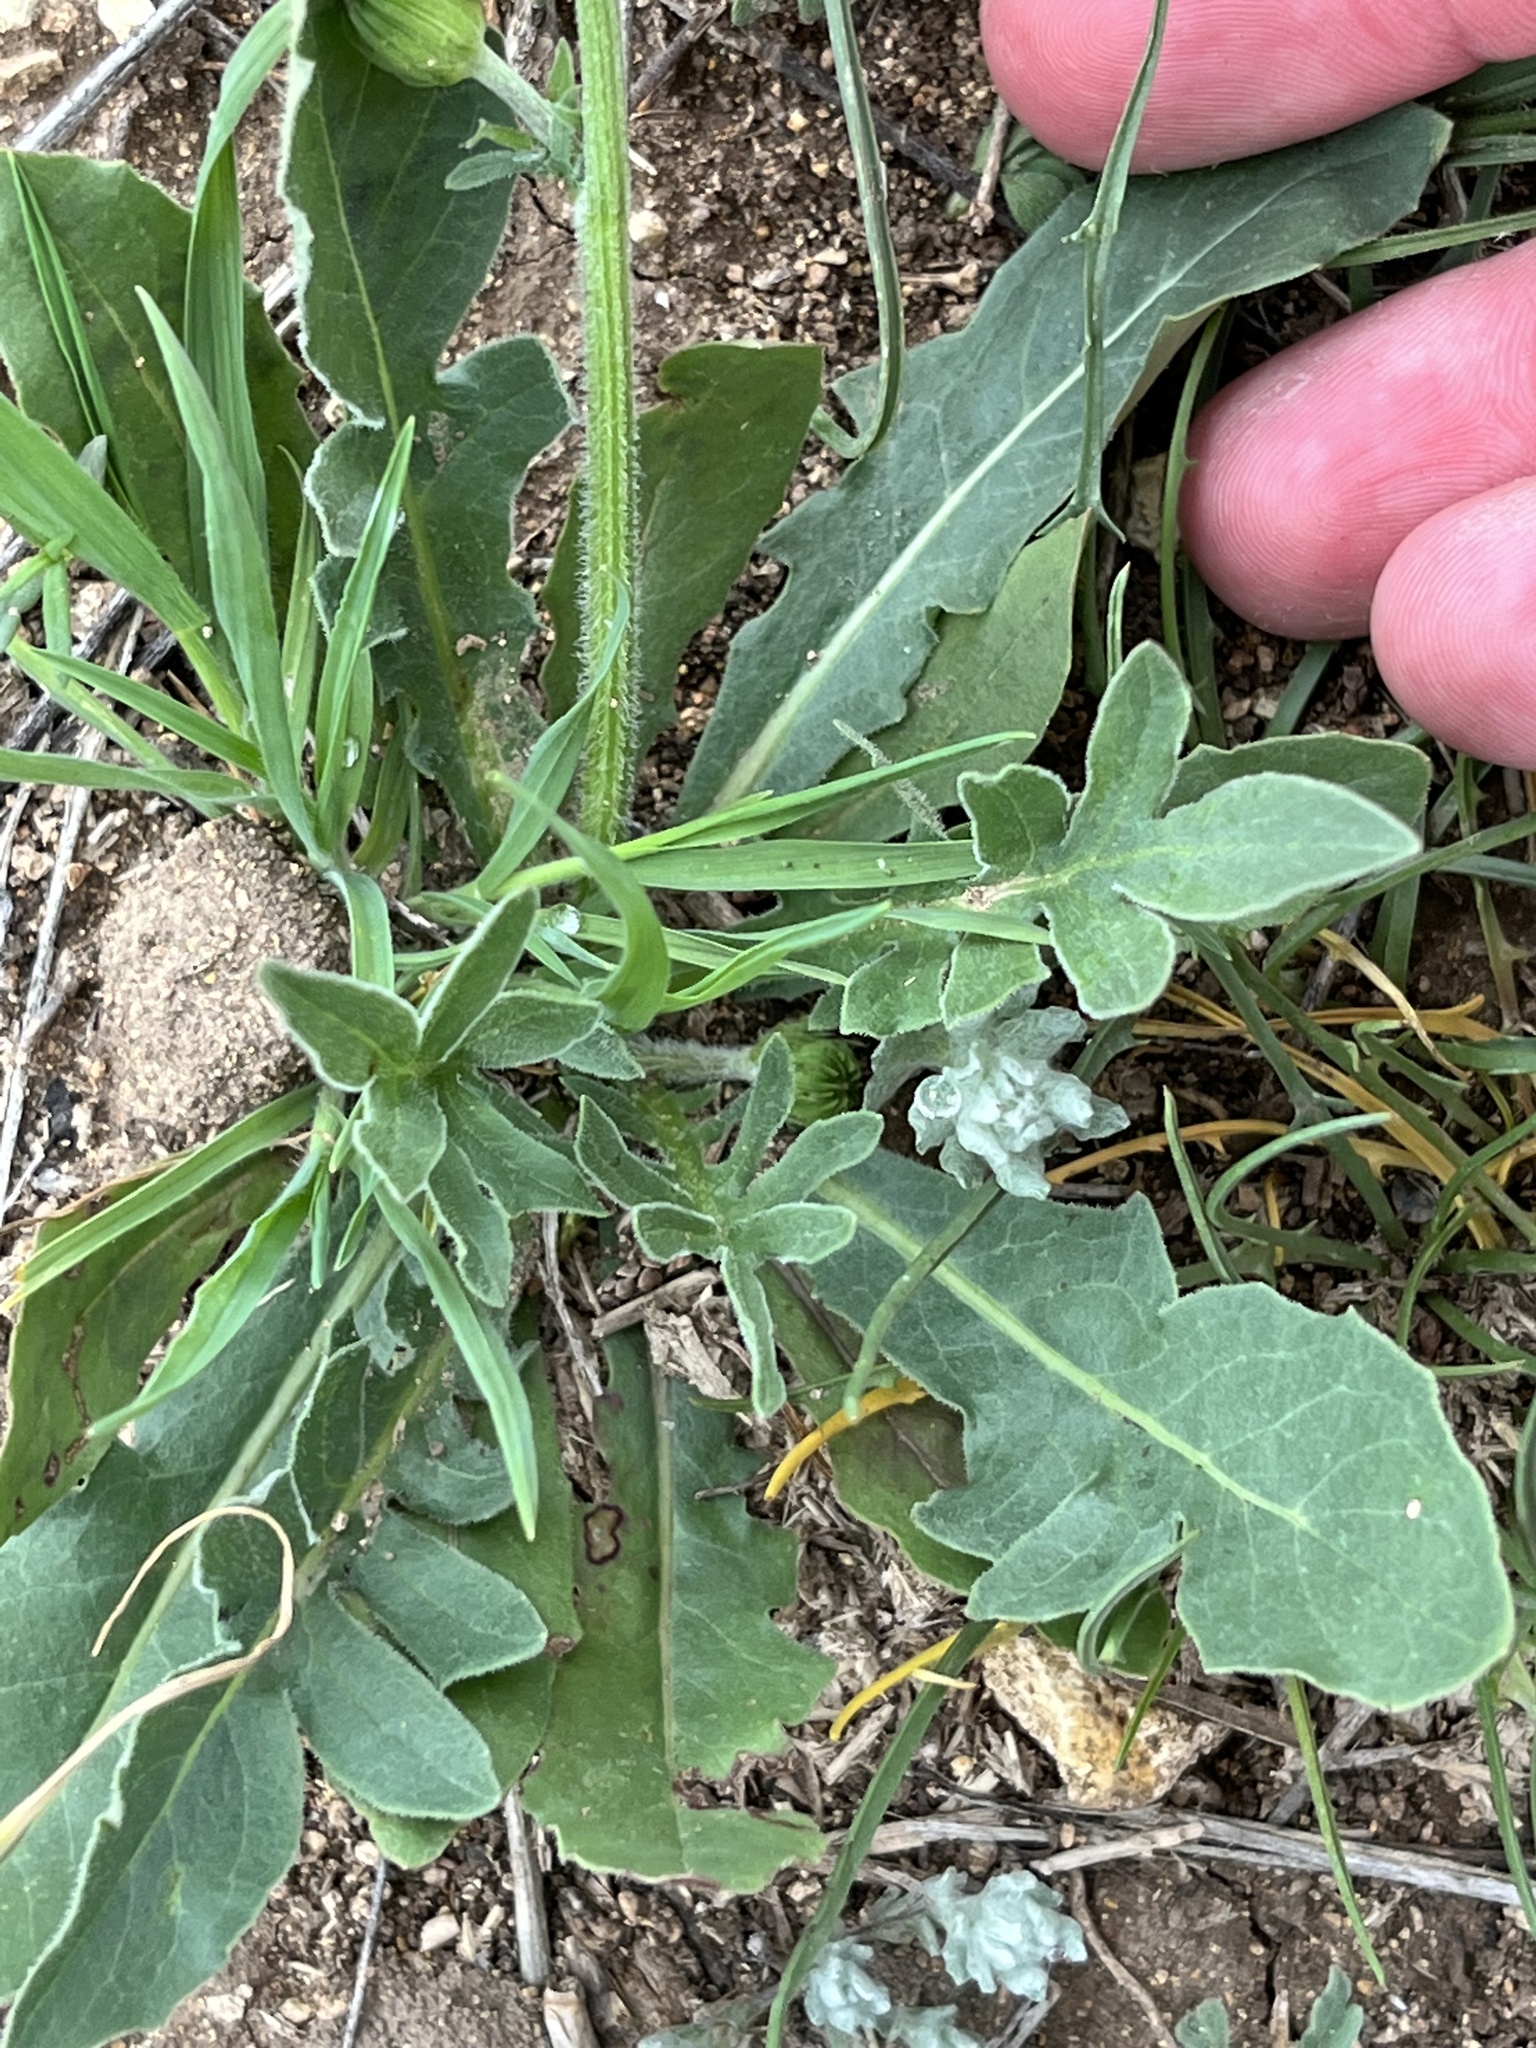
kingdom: Plantae
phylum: Tracheophyta
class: Magnoliopsida
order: Asterales
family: Asteraceae
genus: Pyrrhopappus
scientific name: Pyrrhopappus pauciflorus
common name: Texas false dandelion
